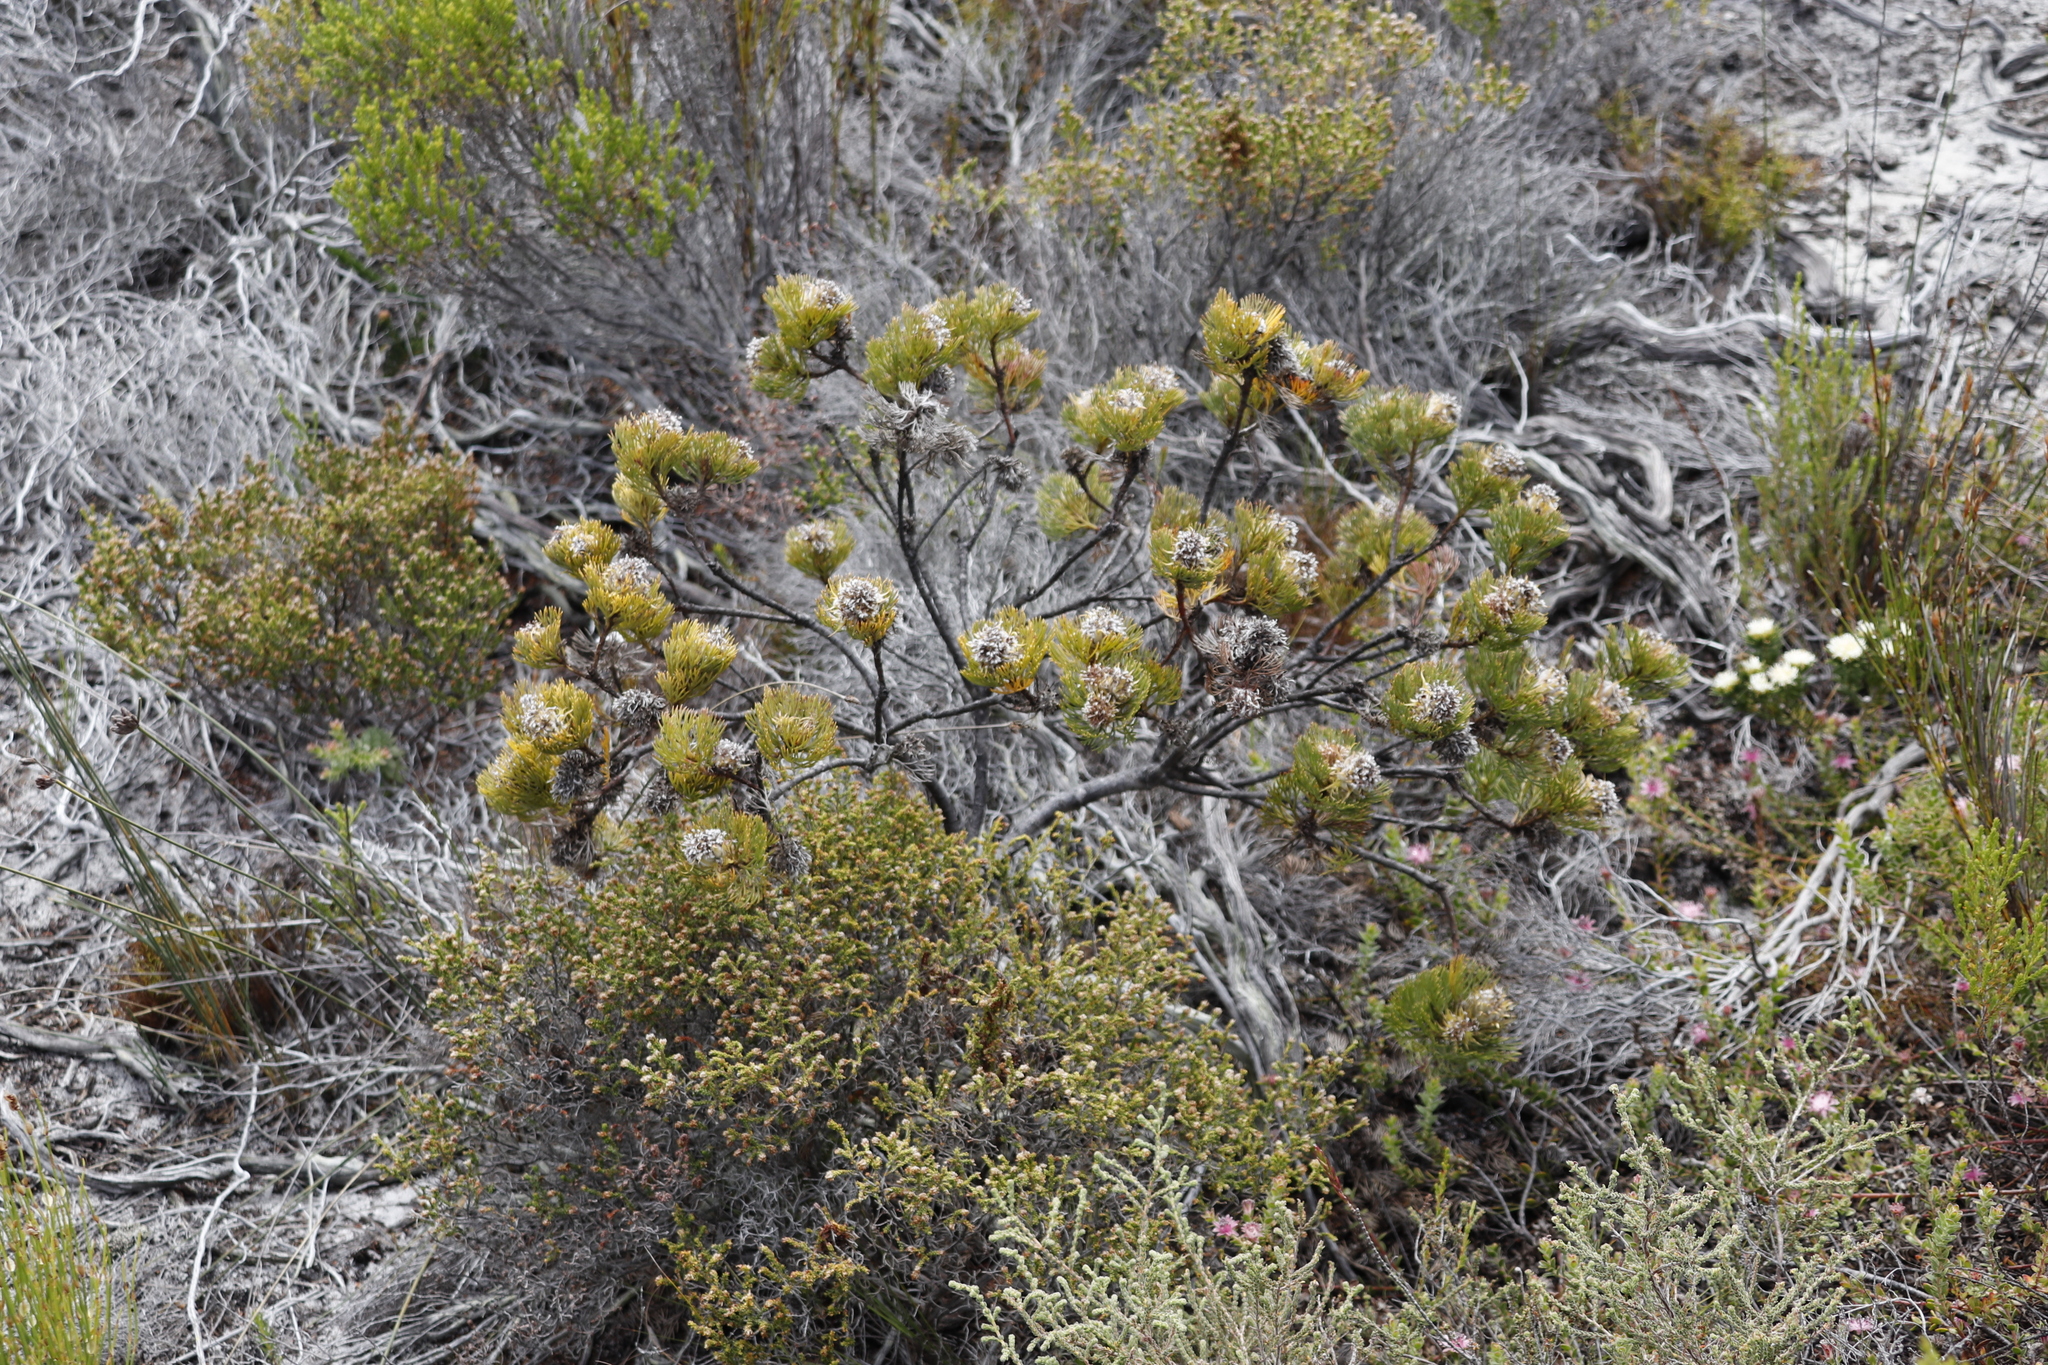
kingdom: Plantae
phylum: Tracheophyta
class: Magnoliopsida
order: Proteales
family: Proteaceae
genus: Serruria
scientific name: Serruria villosa
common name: Golden spiderhead
